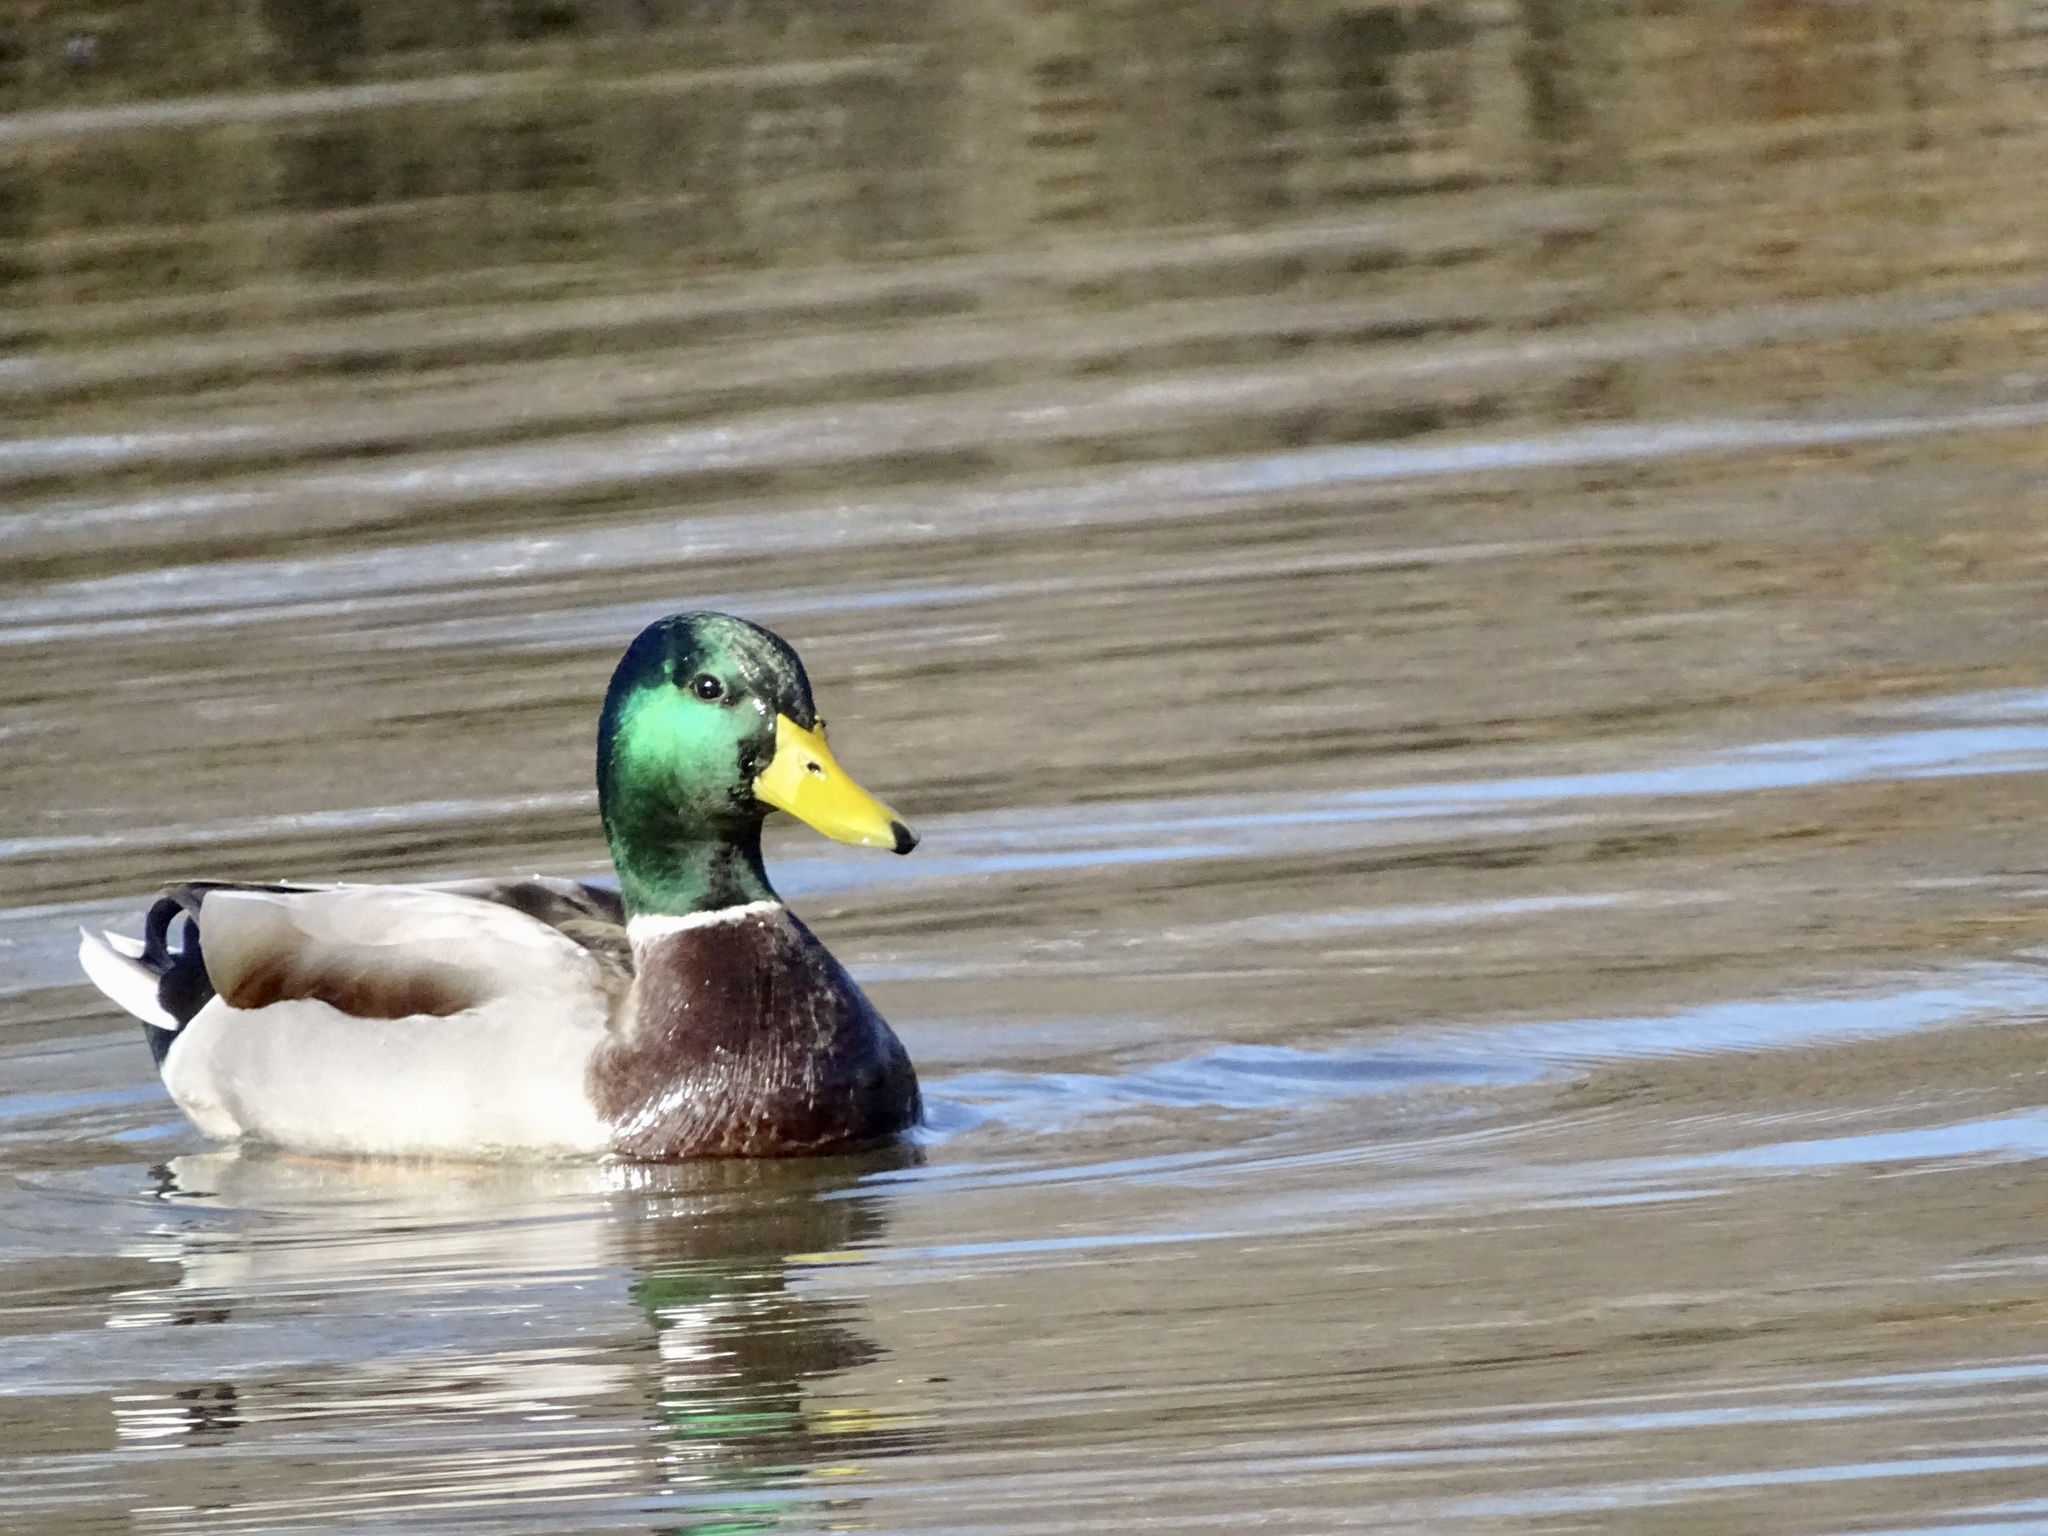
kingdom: Animalia
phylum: Chordata
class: Aves
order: Anseriformes
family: Anatidae
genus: Anas
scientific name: Anas platyrhynchos
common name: Mallard
